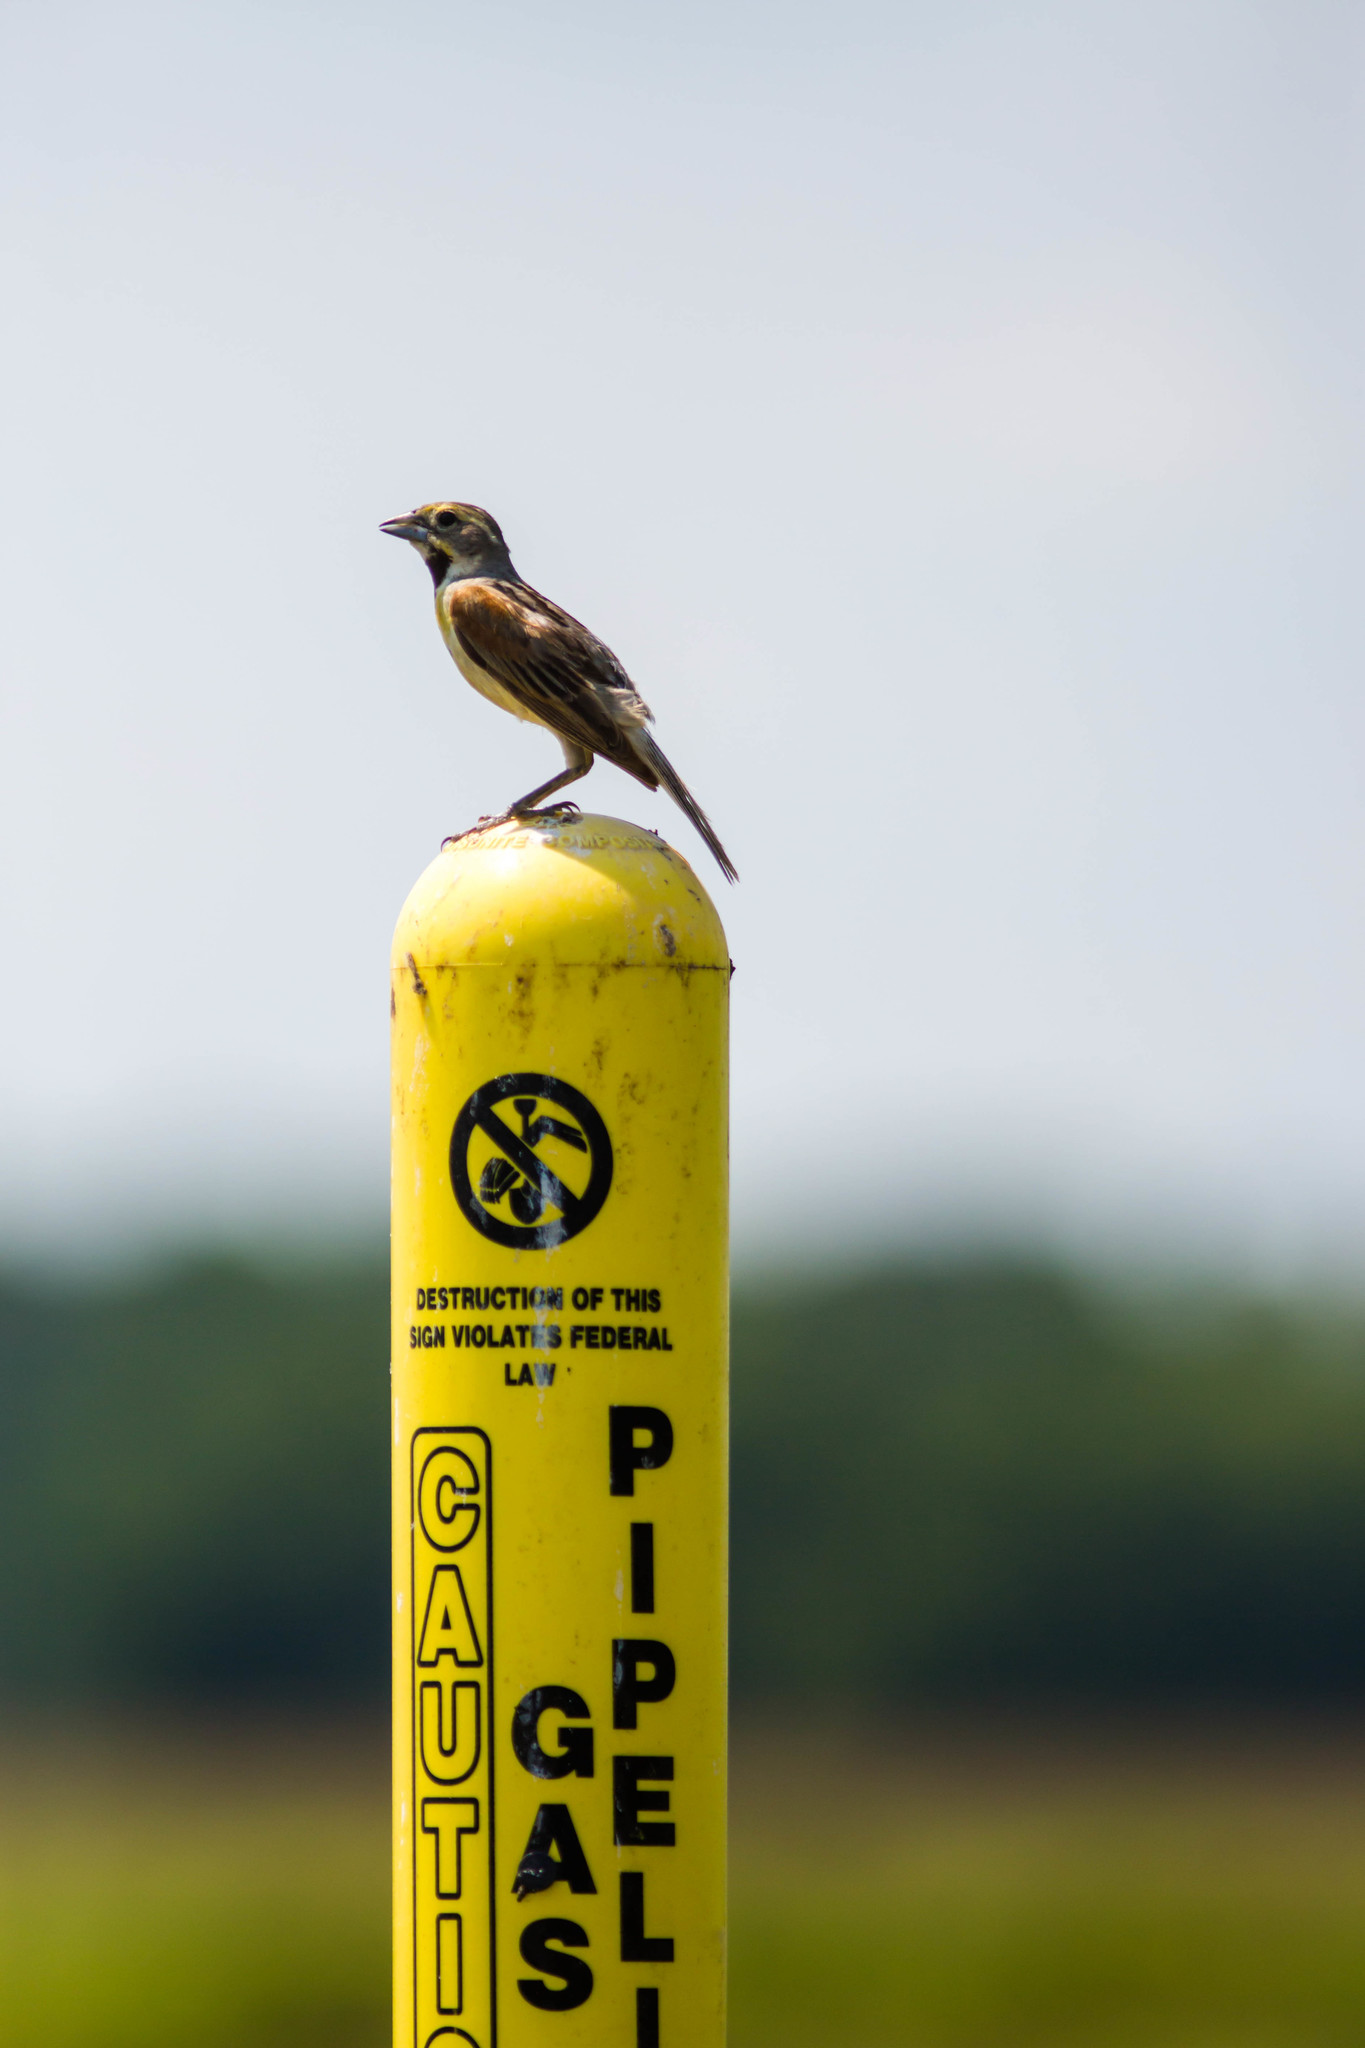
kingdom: Animalia
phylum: Chordata
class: Aves
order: Passeriformes
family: Cardinalidae
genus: Spiza
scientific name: Spiza americana
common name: Dickcissel
